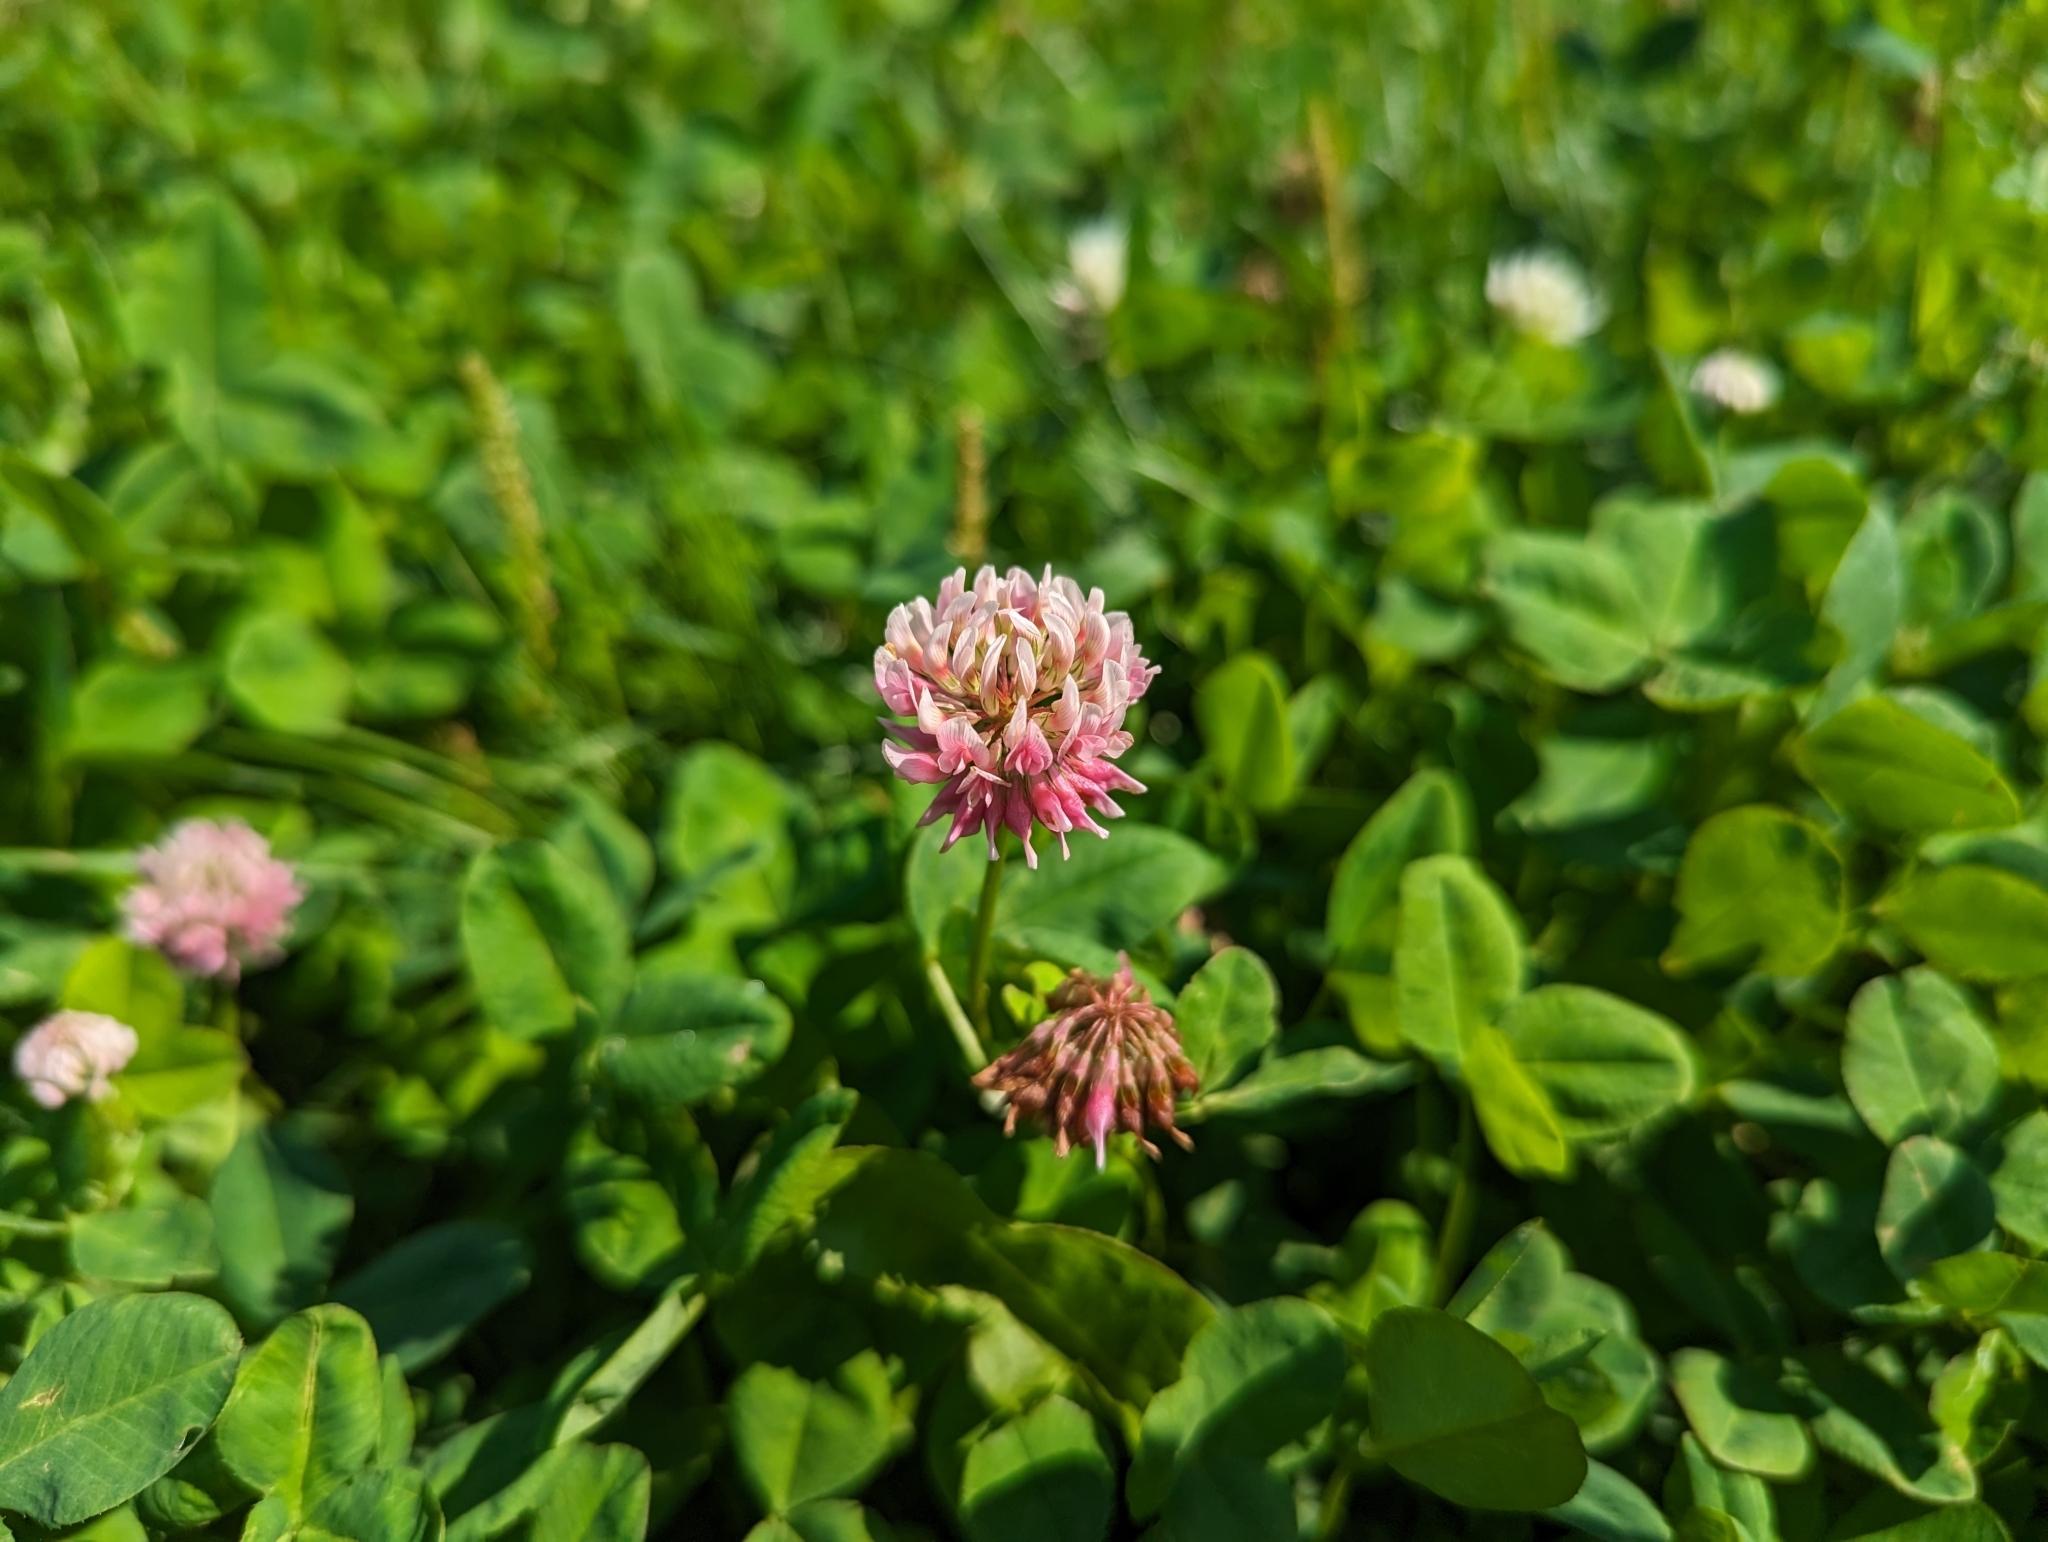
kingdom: Plantae
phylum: Tracheophyta
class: Magnoliopsida
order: Fabales
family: Fabaceae
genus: Trifolium
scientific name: Trifolium hybridum
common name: Alsike clover
